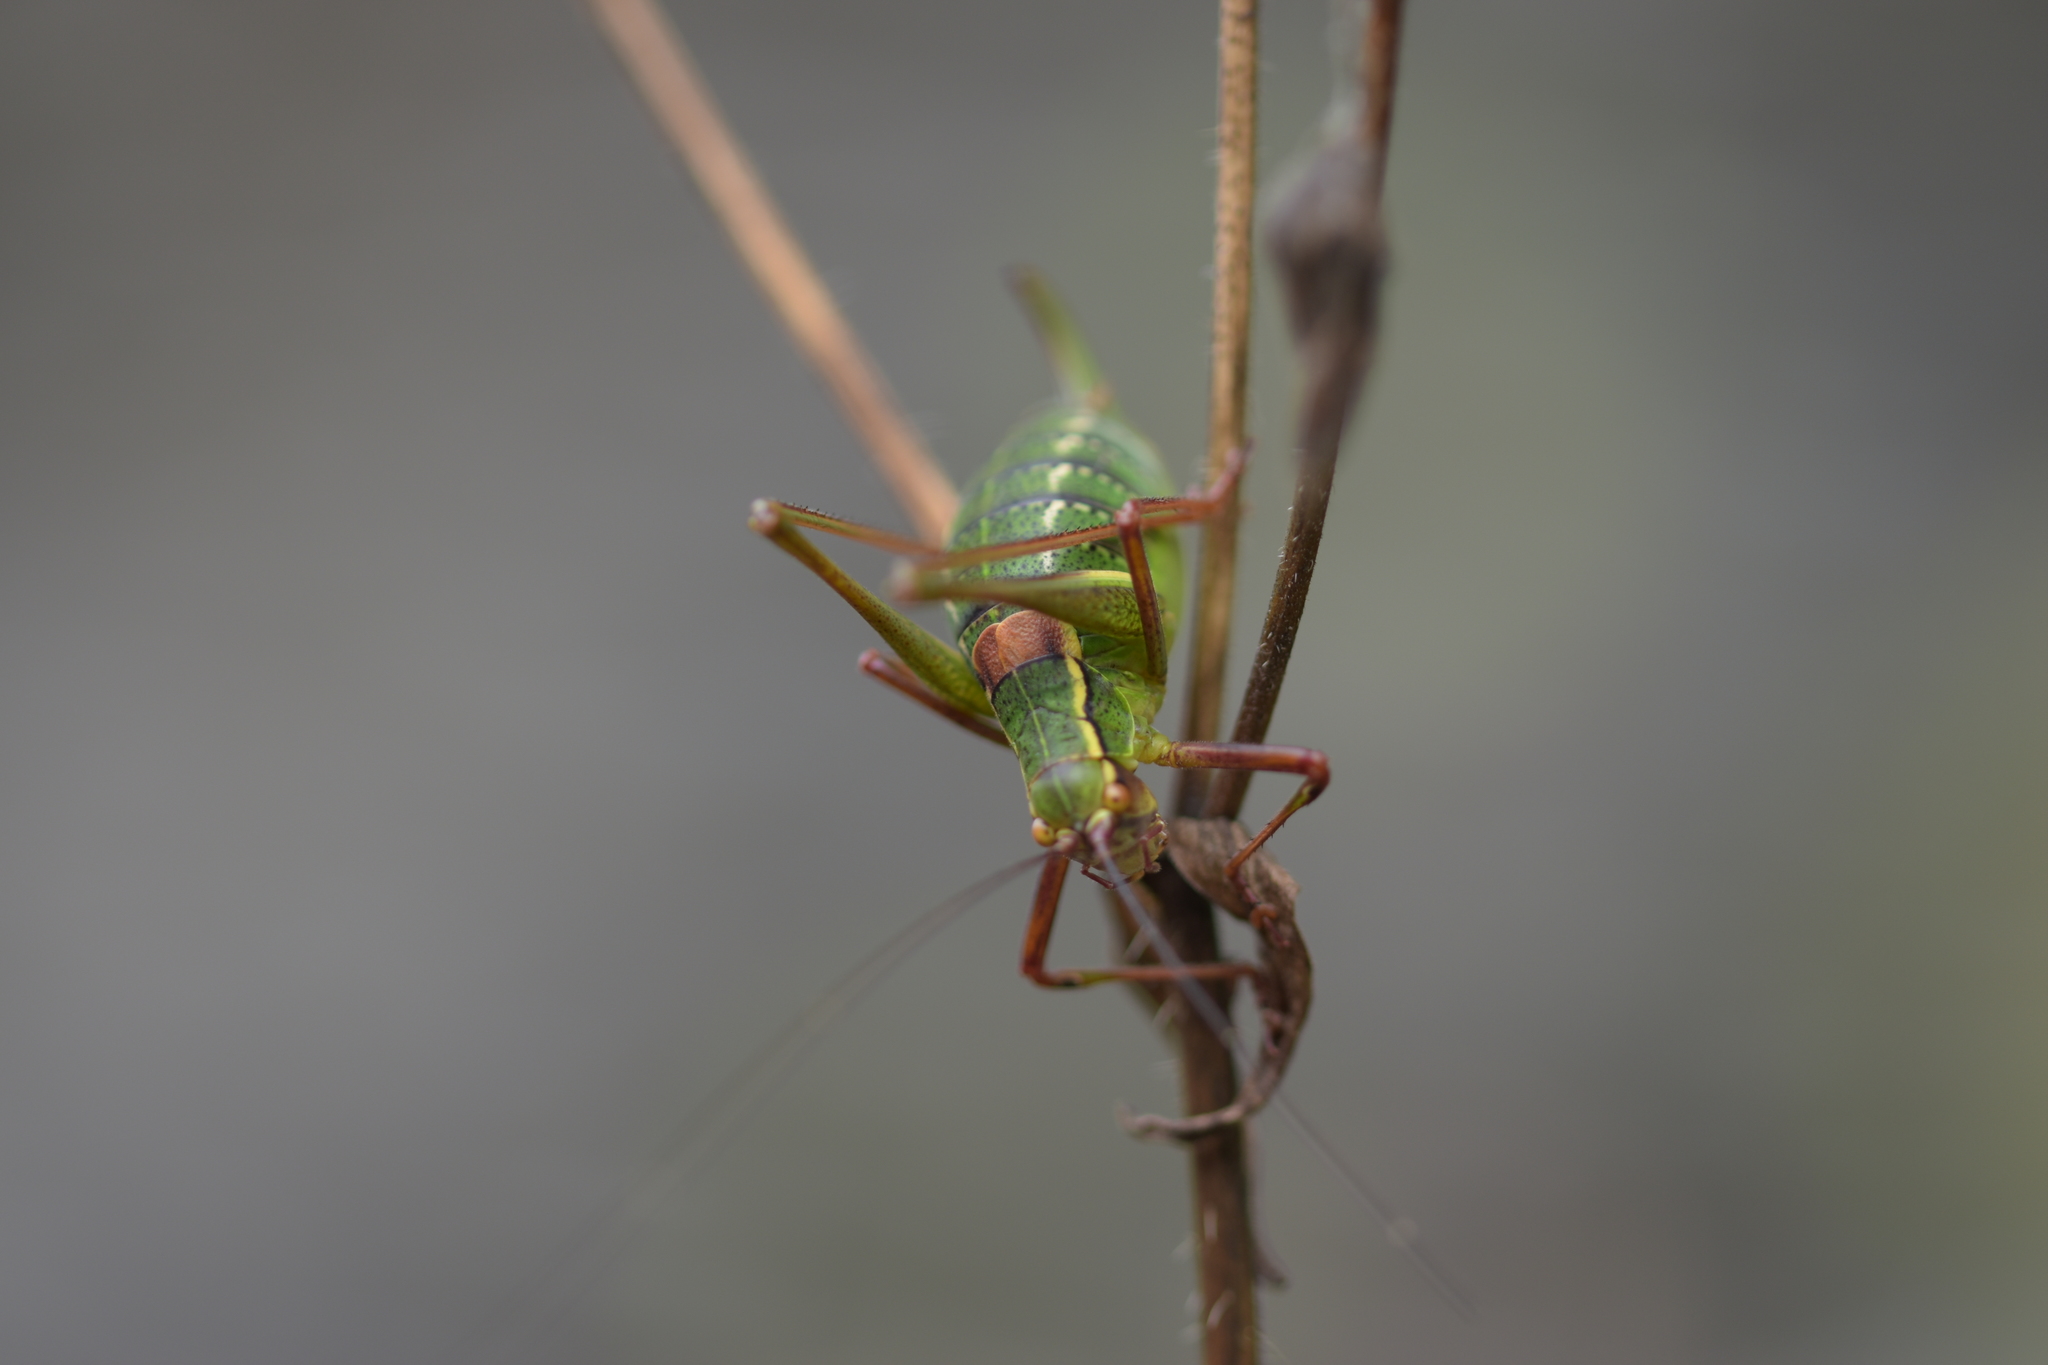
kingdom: Animalia
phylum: Arthropoda
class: Insecta
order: Orthoptera
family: Tettigoniidae
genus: Barbitistes
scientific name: Barbitistes serricauda
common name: Saw-tailed bush-cricket
